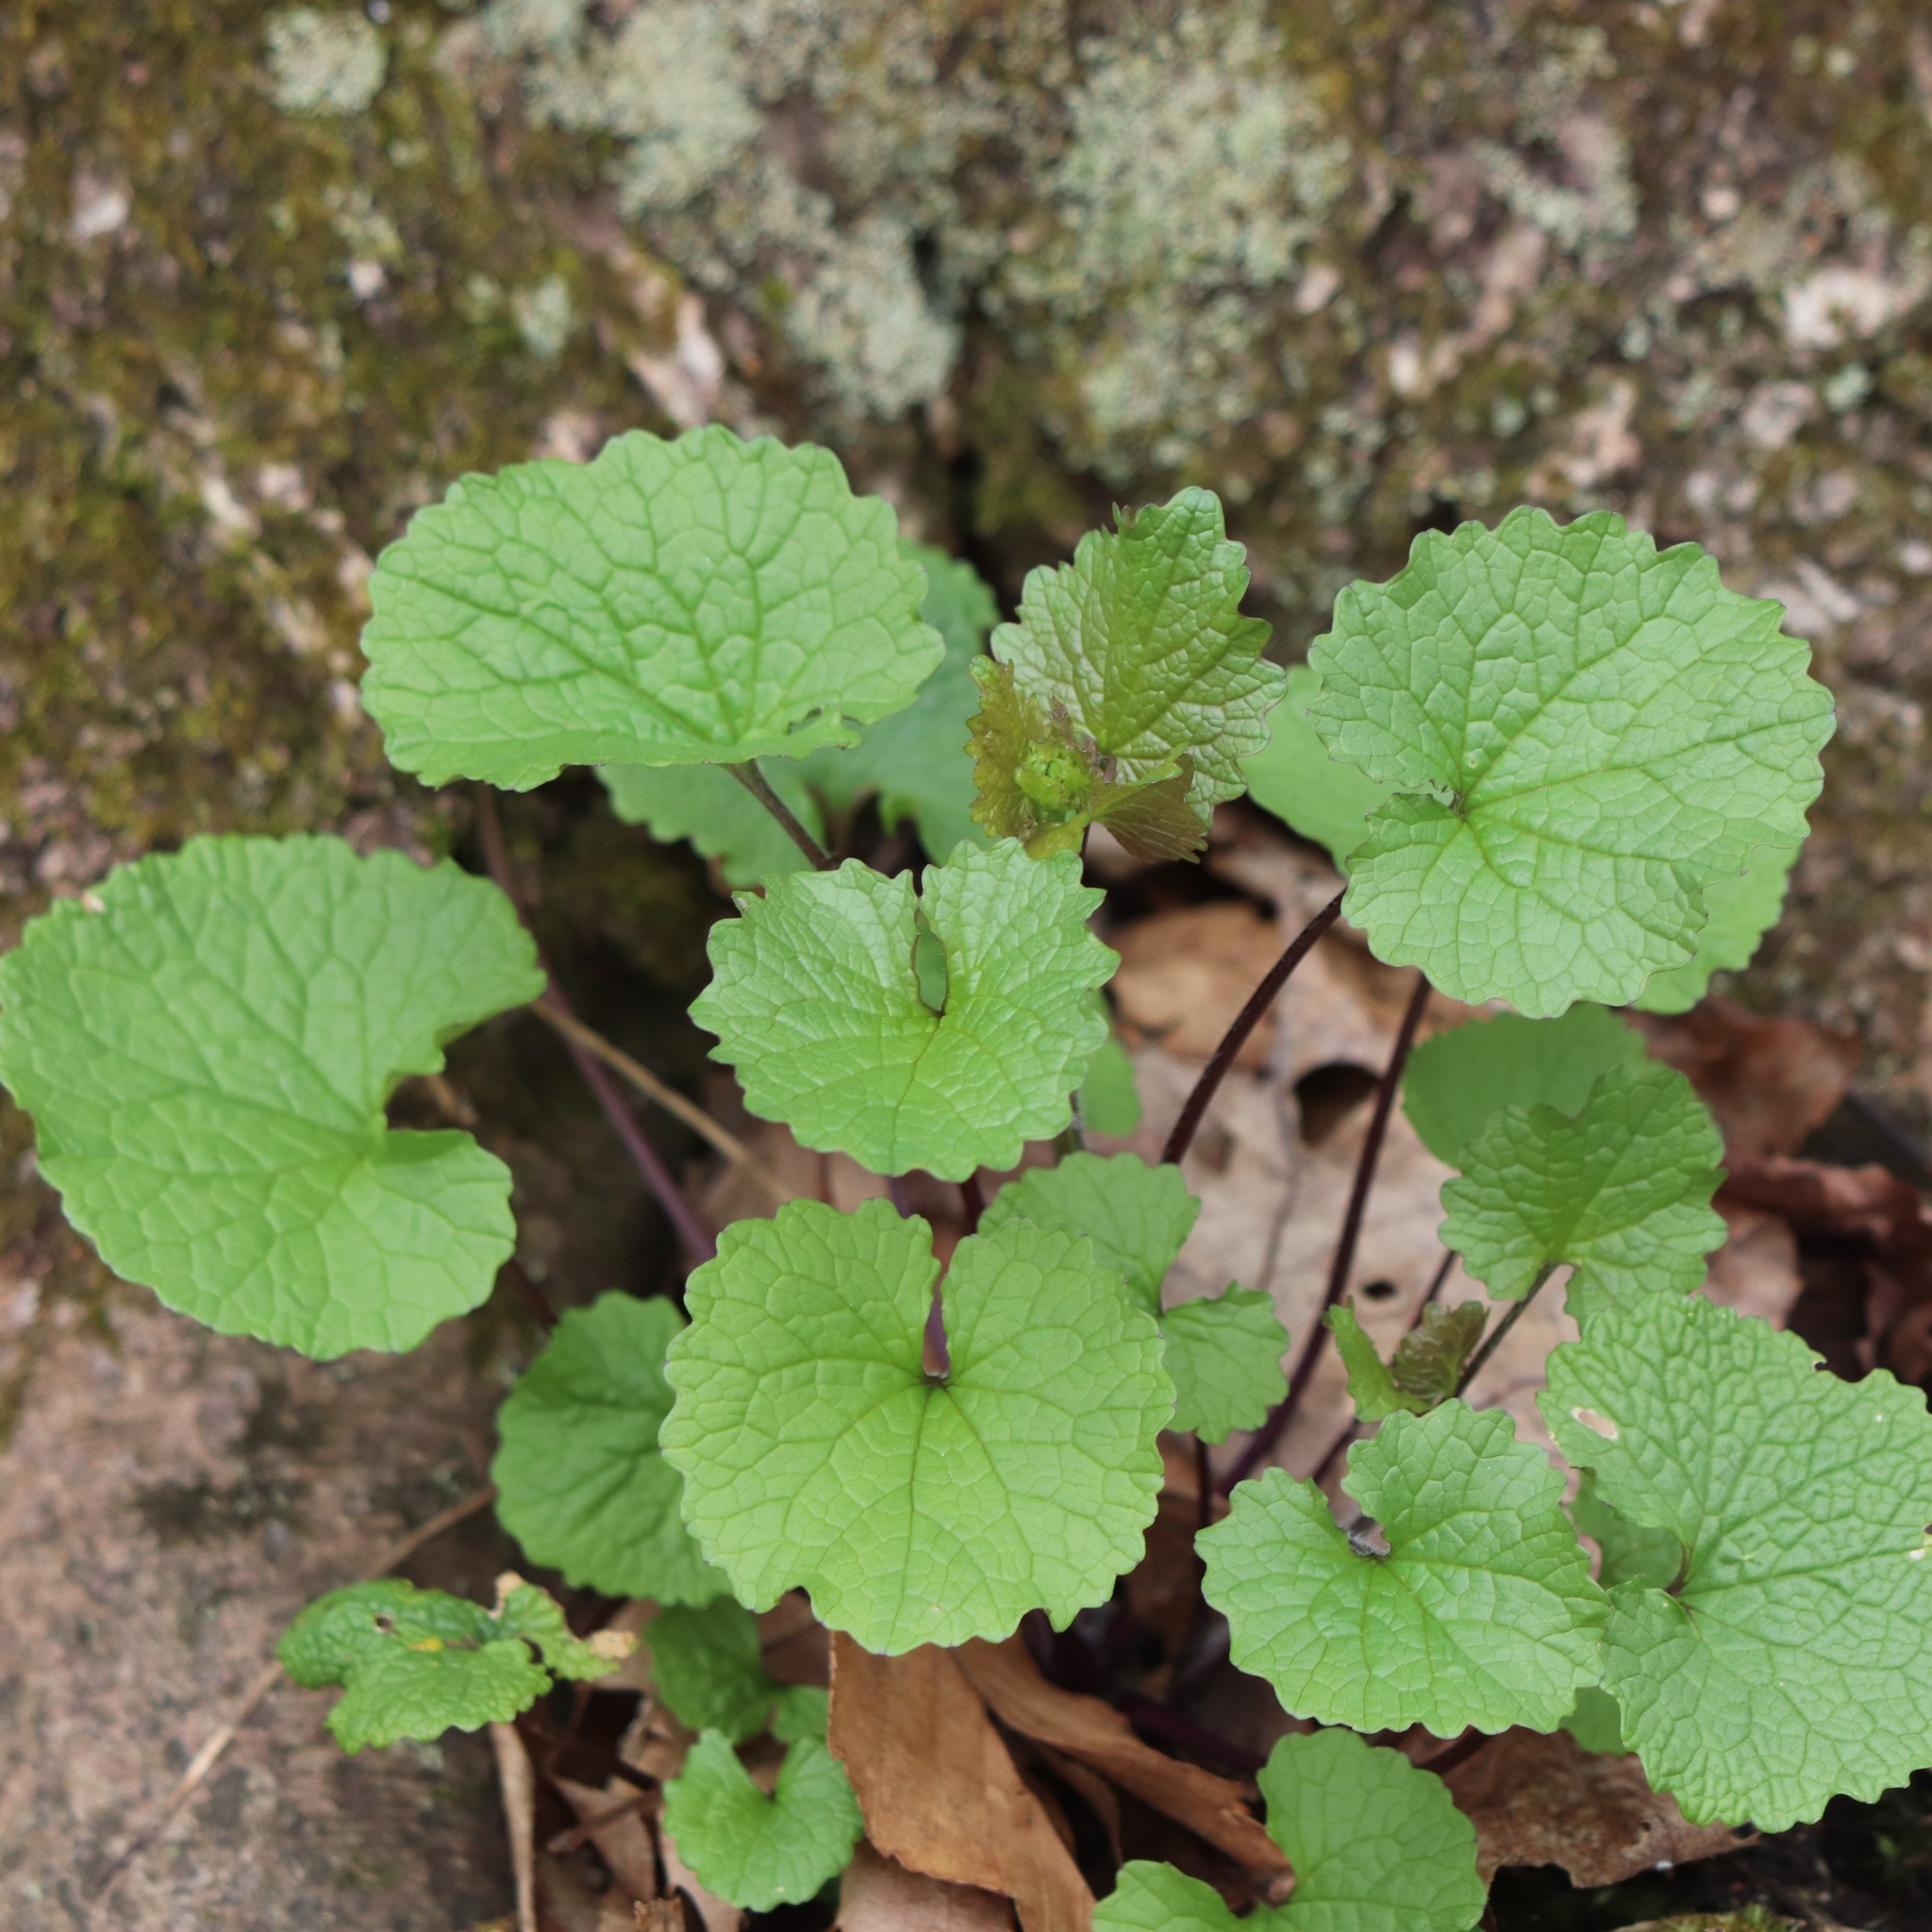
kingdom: Plantae
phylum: Tracheophyta
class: Magnoliopsida
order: Brassicales
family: Brassicaceae
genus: Alliaria
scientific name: Alliaria petiolata
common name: Garlic mustard
